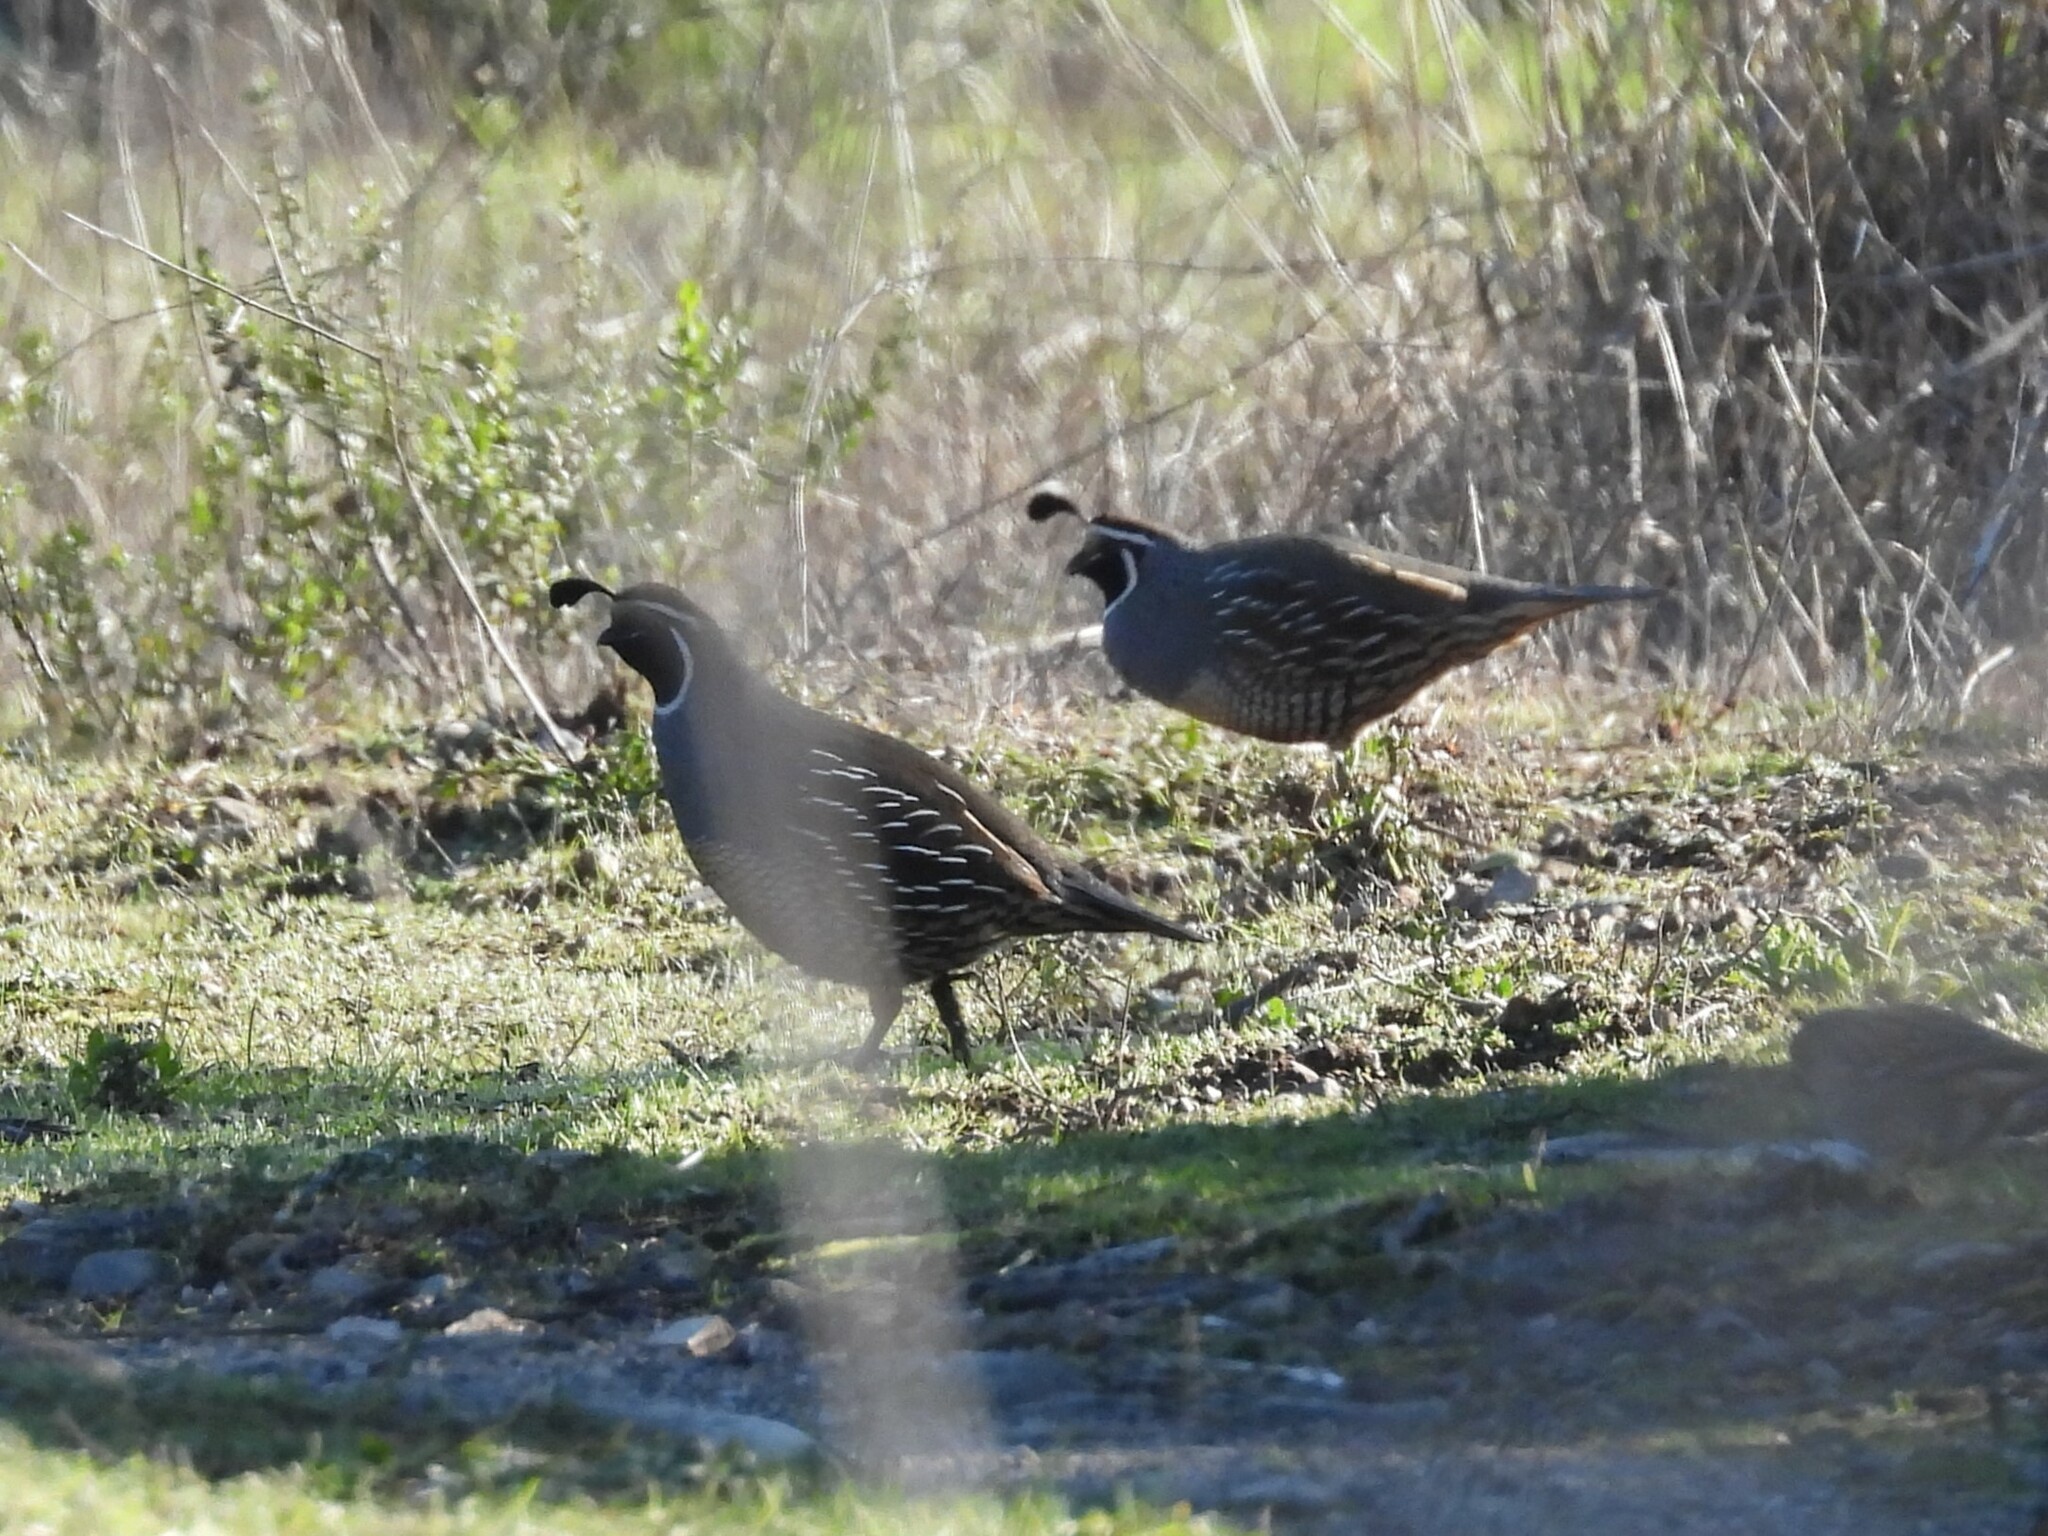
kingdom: Animalia
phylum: Chordata
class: Aves
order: Galliformes
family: Odontophoridae
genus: Callipepla
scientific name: Callipepla californica
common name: California quail
